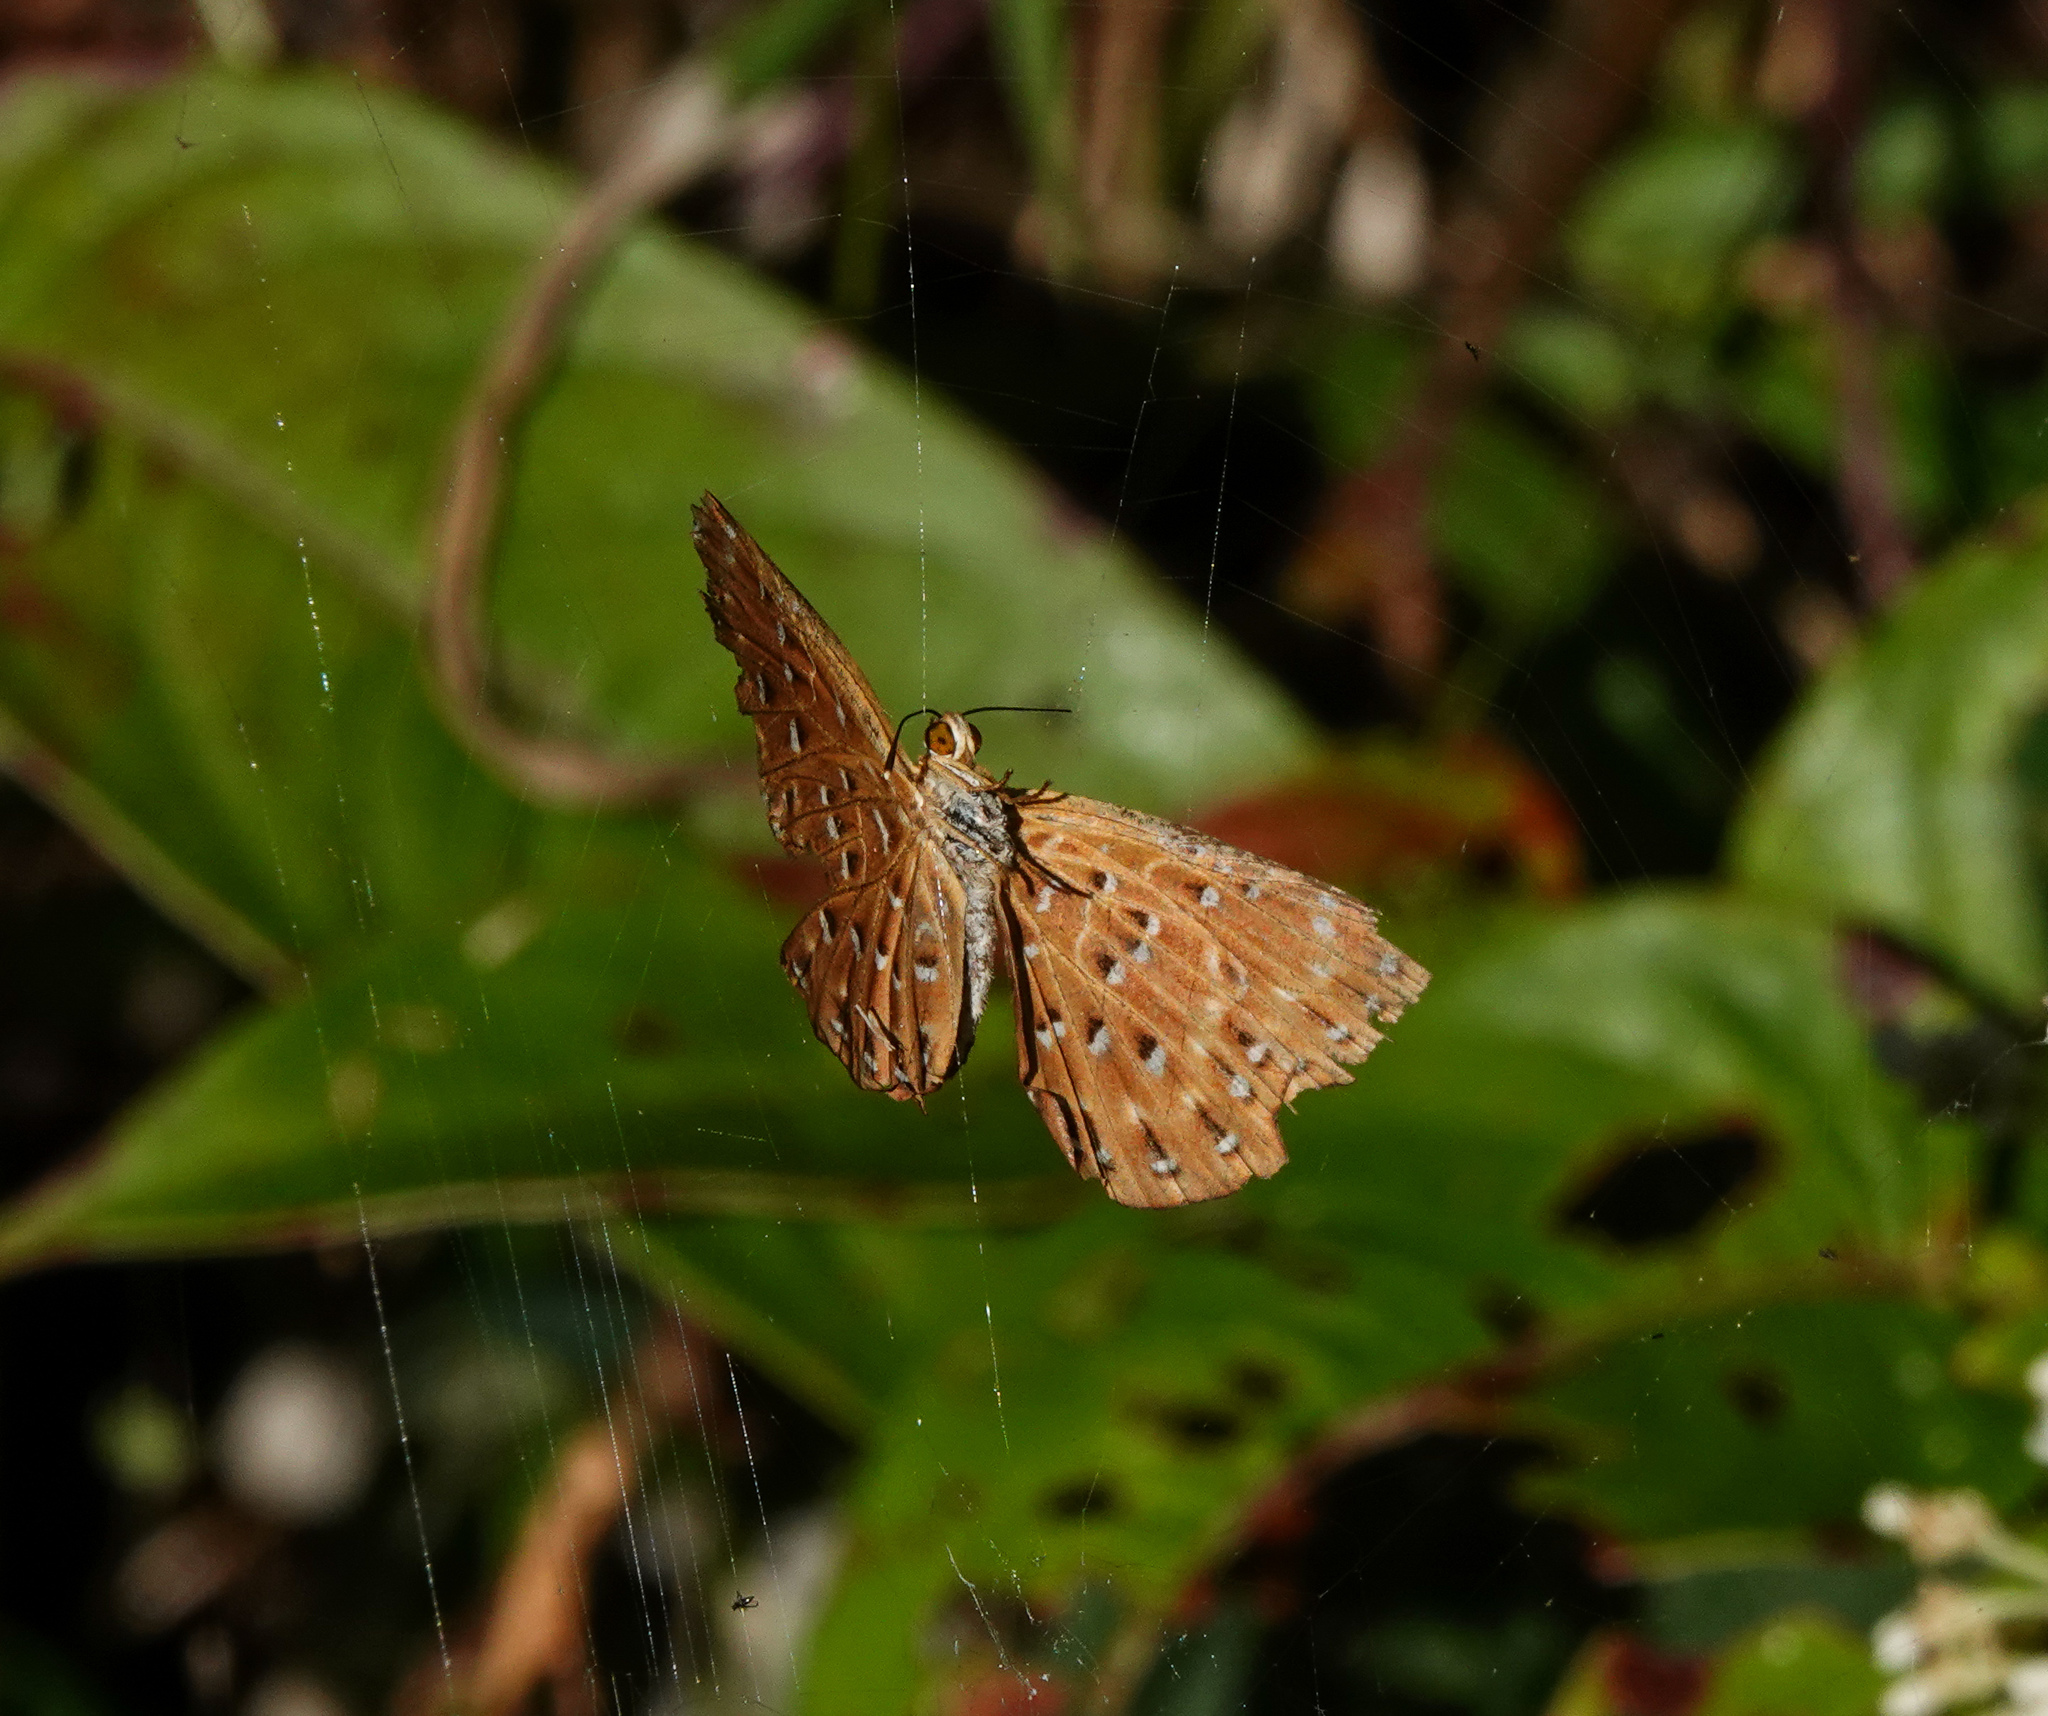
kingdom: Animalia
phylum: Arthropoda
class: Insecta
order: Lepidoptera
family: Riodinidae
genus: Zemeros
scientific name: Zemeros flegyas
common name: Punchinello
